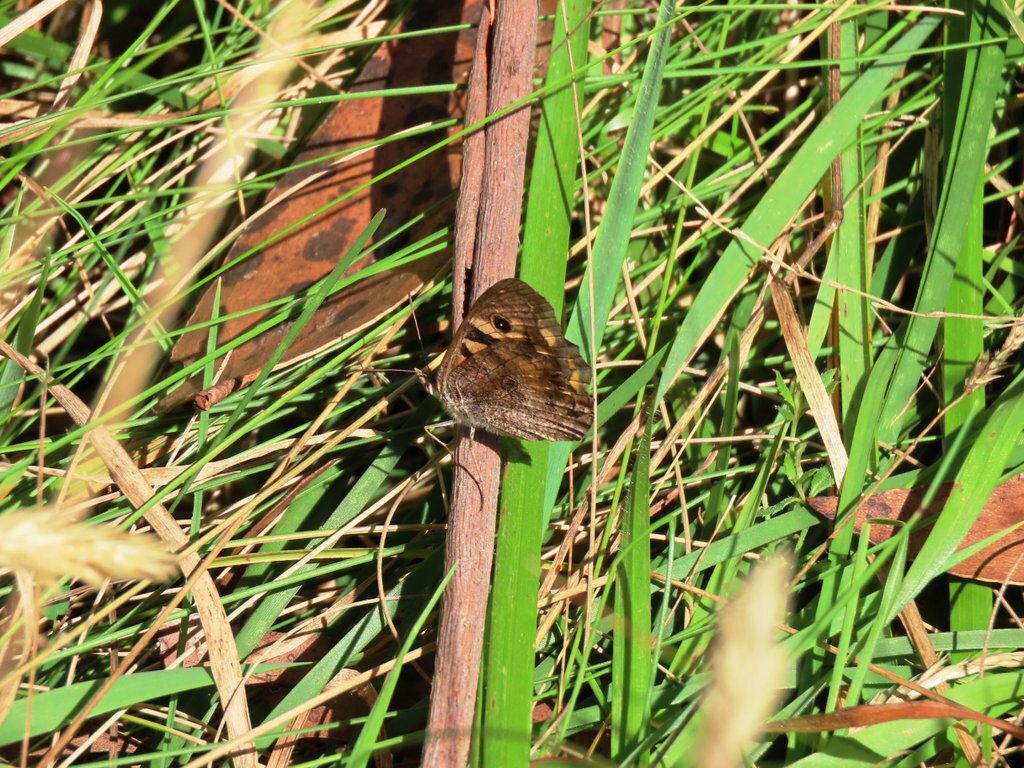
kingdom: Animalia
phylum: Arthropoda
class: Insecta
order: Lepidoptera
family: Nymphalidae
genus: Geitoneura
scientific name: Geitoneura klugii
